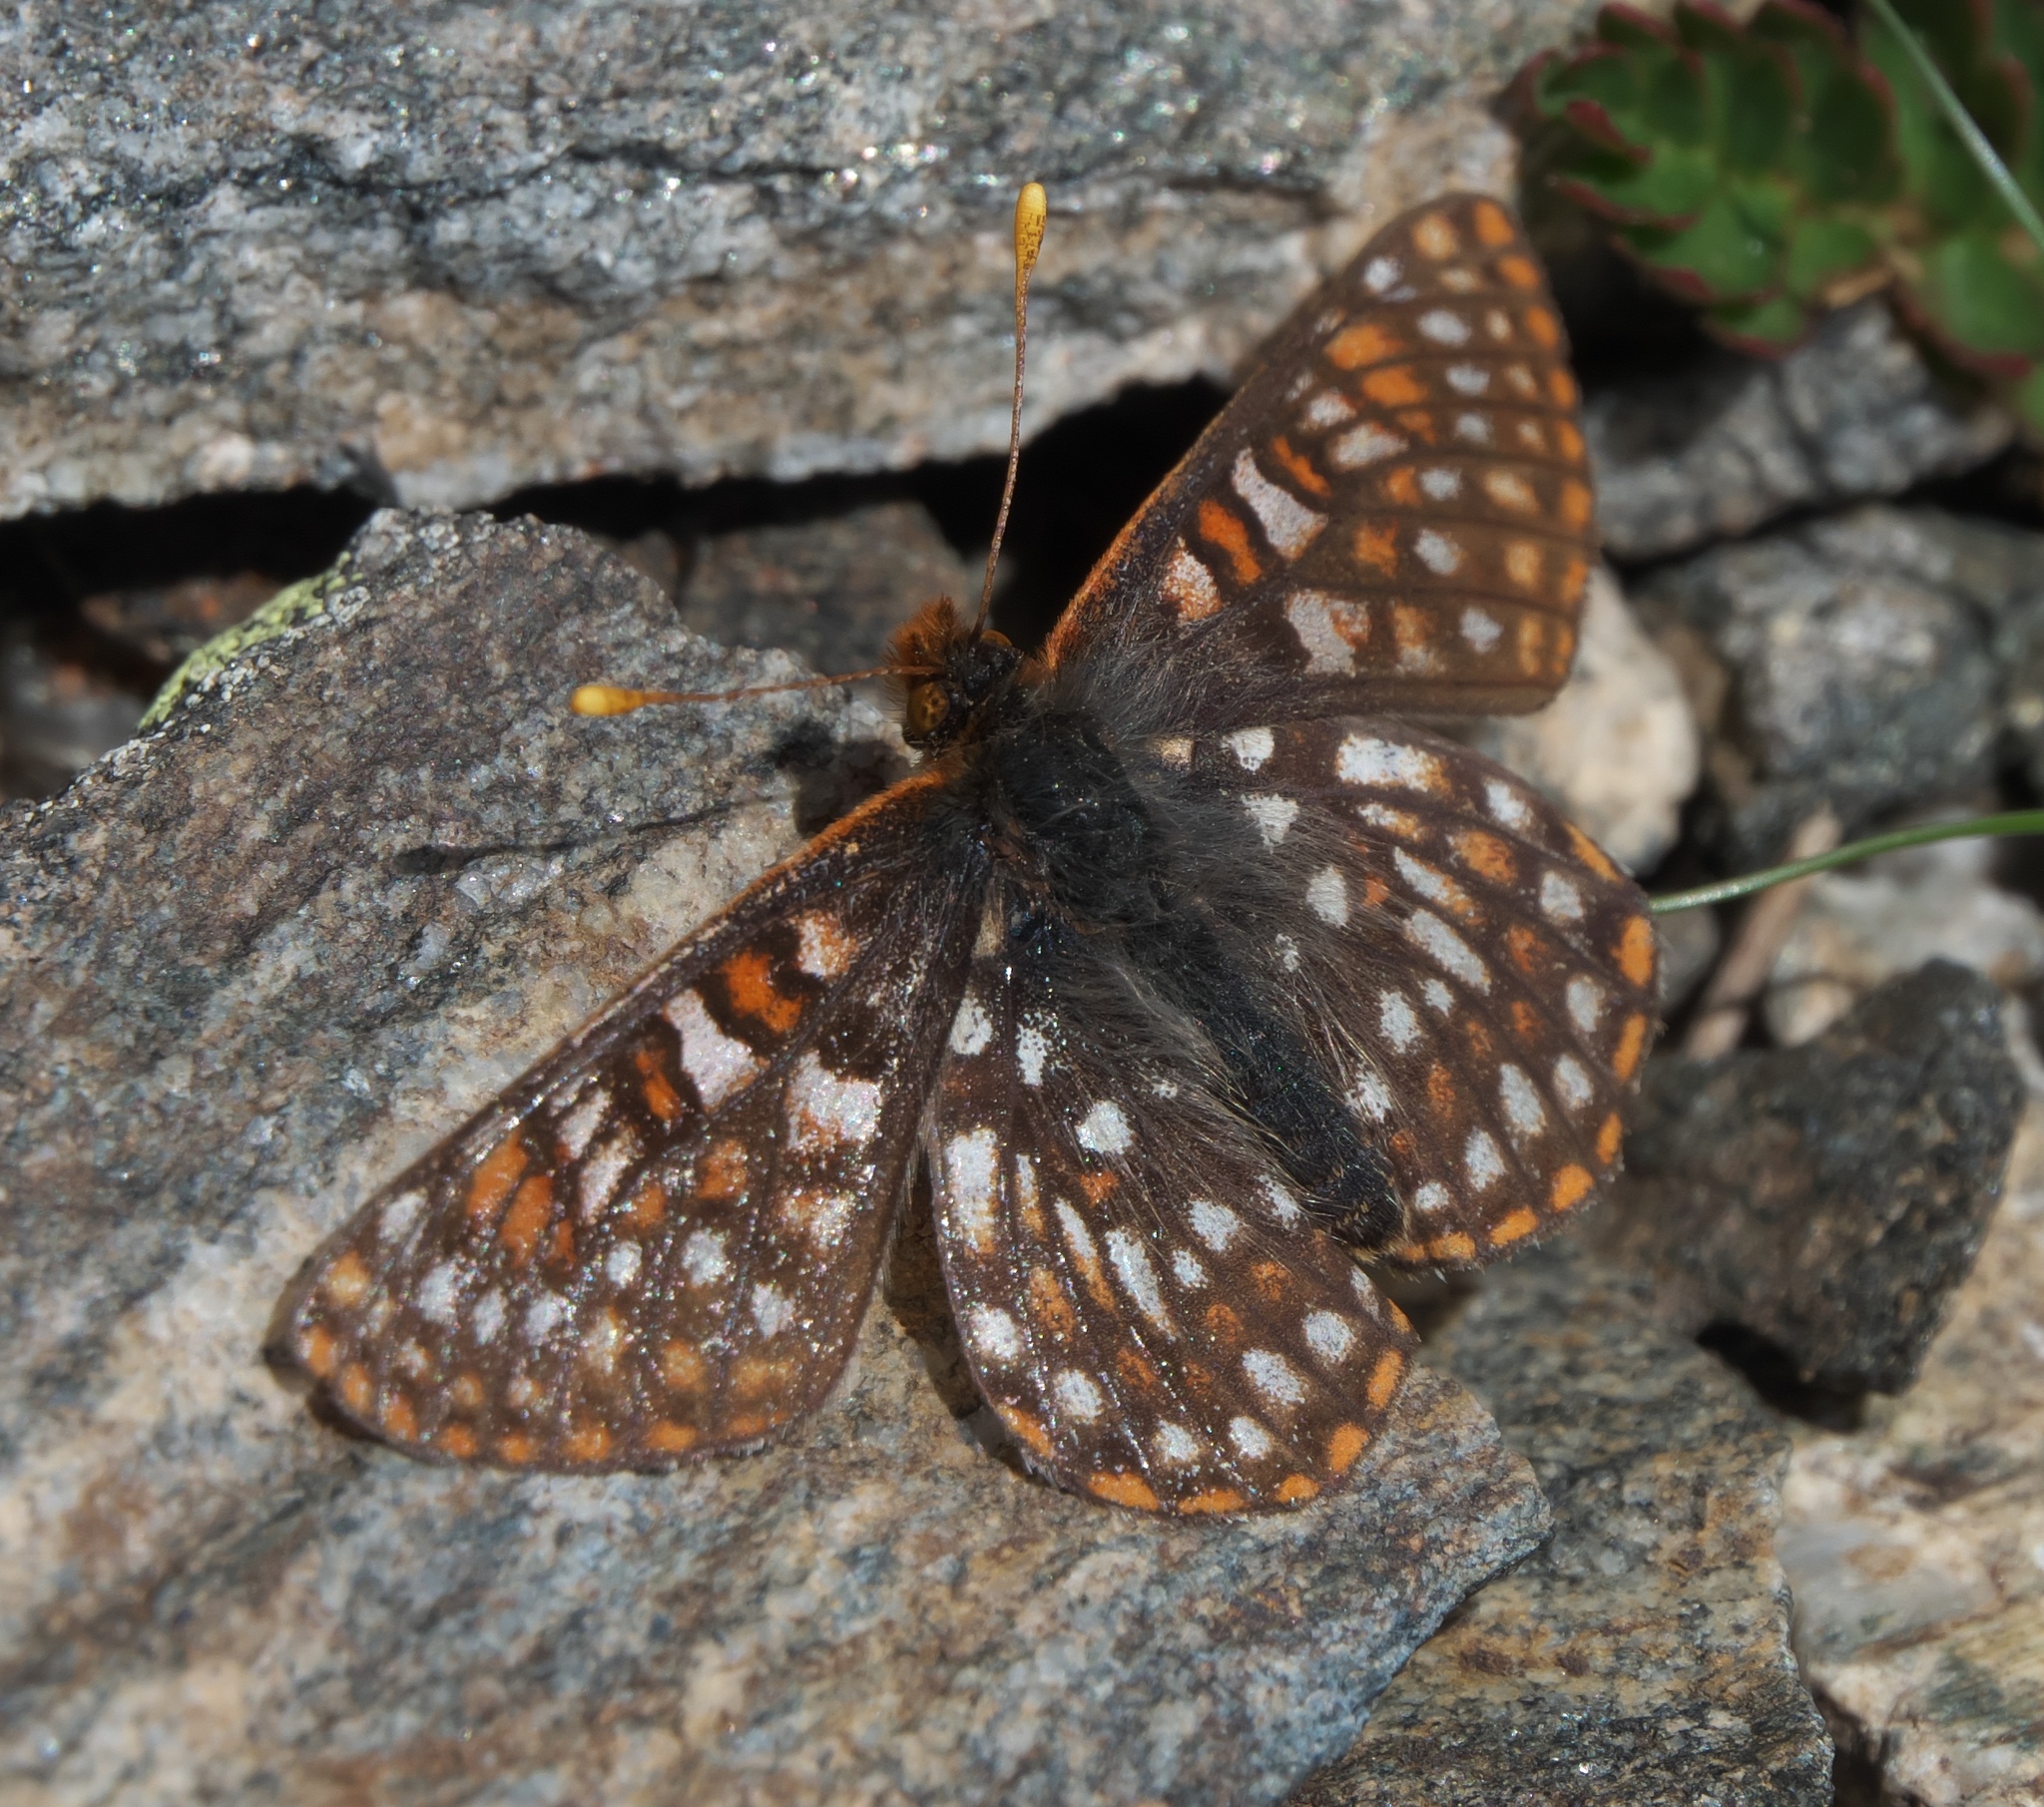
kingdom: Animalia
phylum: Arthropoda
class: Insecta
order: Lepidoptera
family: Nymphalidae
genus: Occidryas
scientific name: Occidryas anicia
